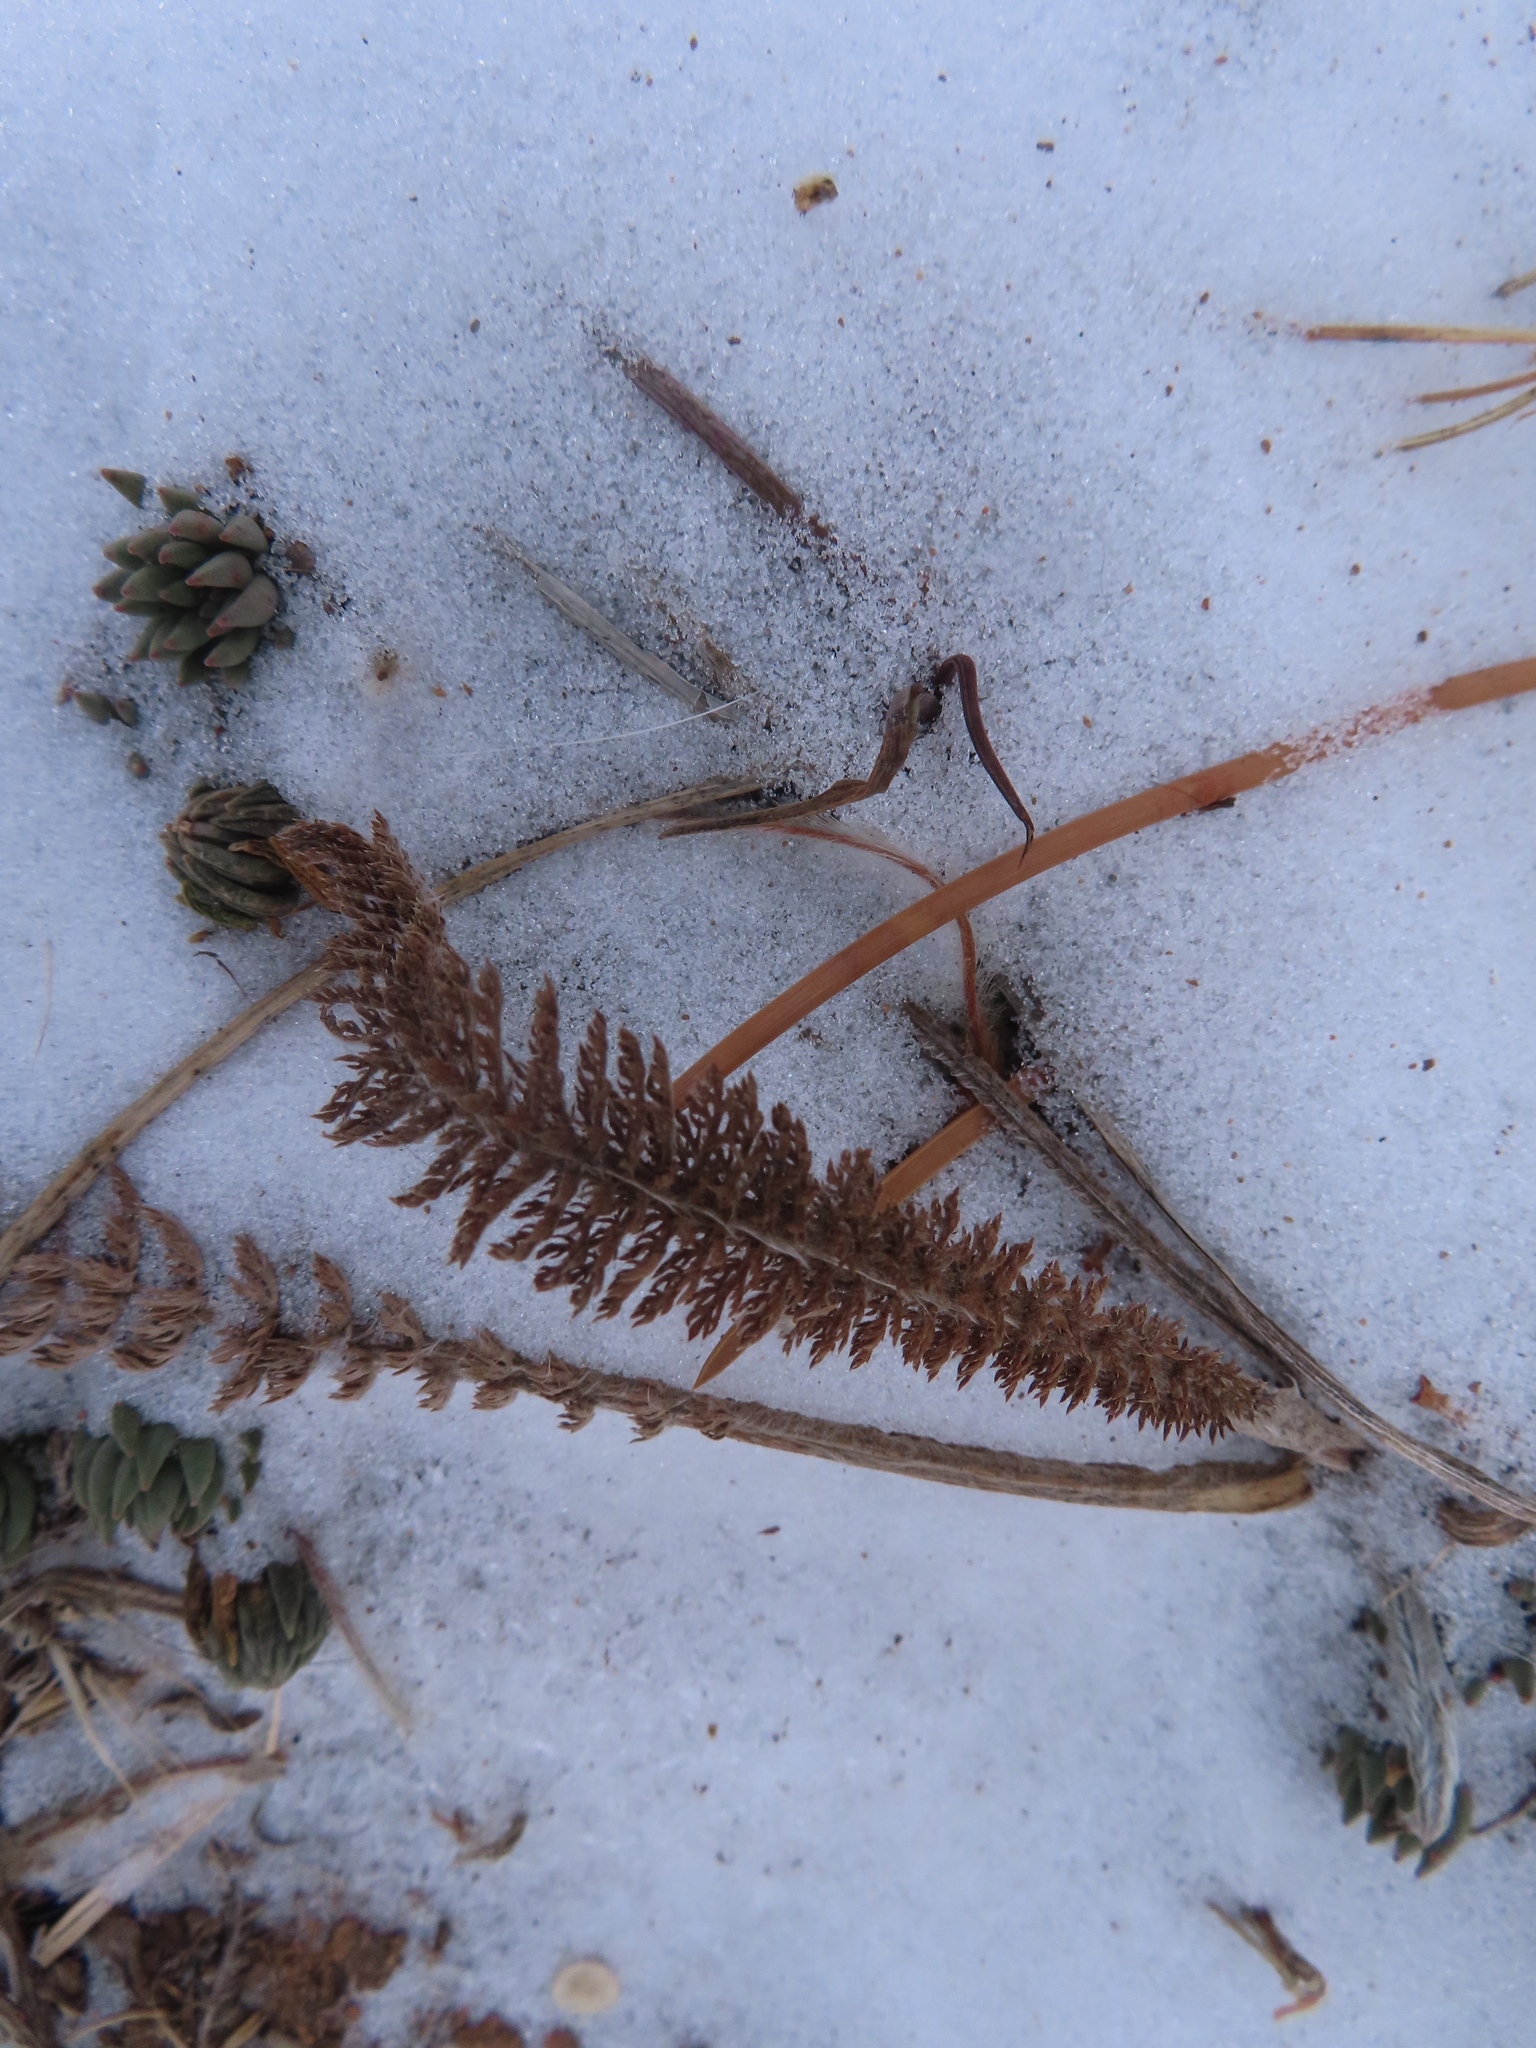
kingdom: Plantae
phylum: Tracheophyta
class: Magnoliopsida
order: Asterales
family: Asteraceae
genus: Achillea
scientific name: Achillea millefolium
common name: Yarrow
